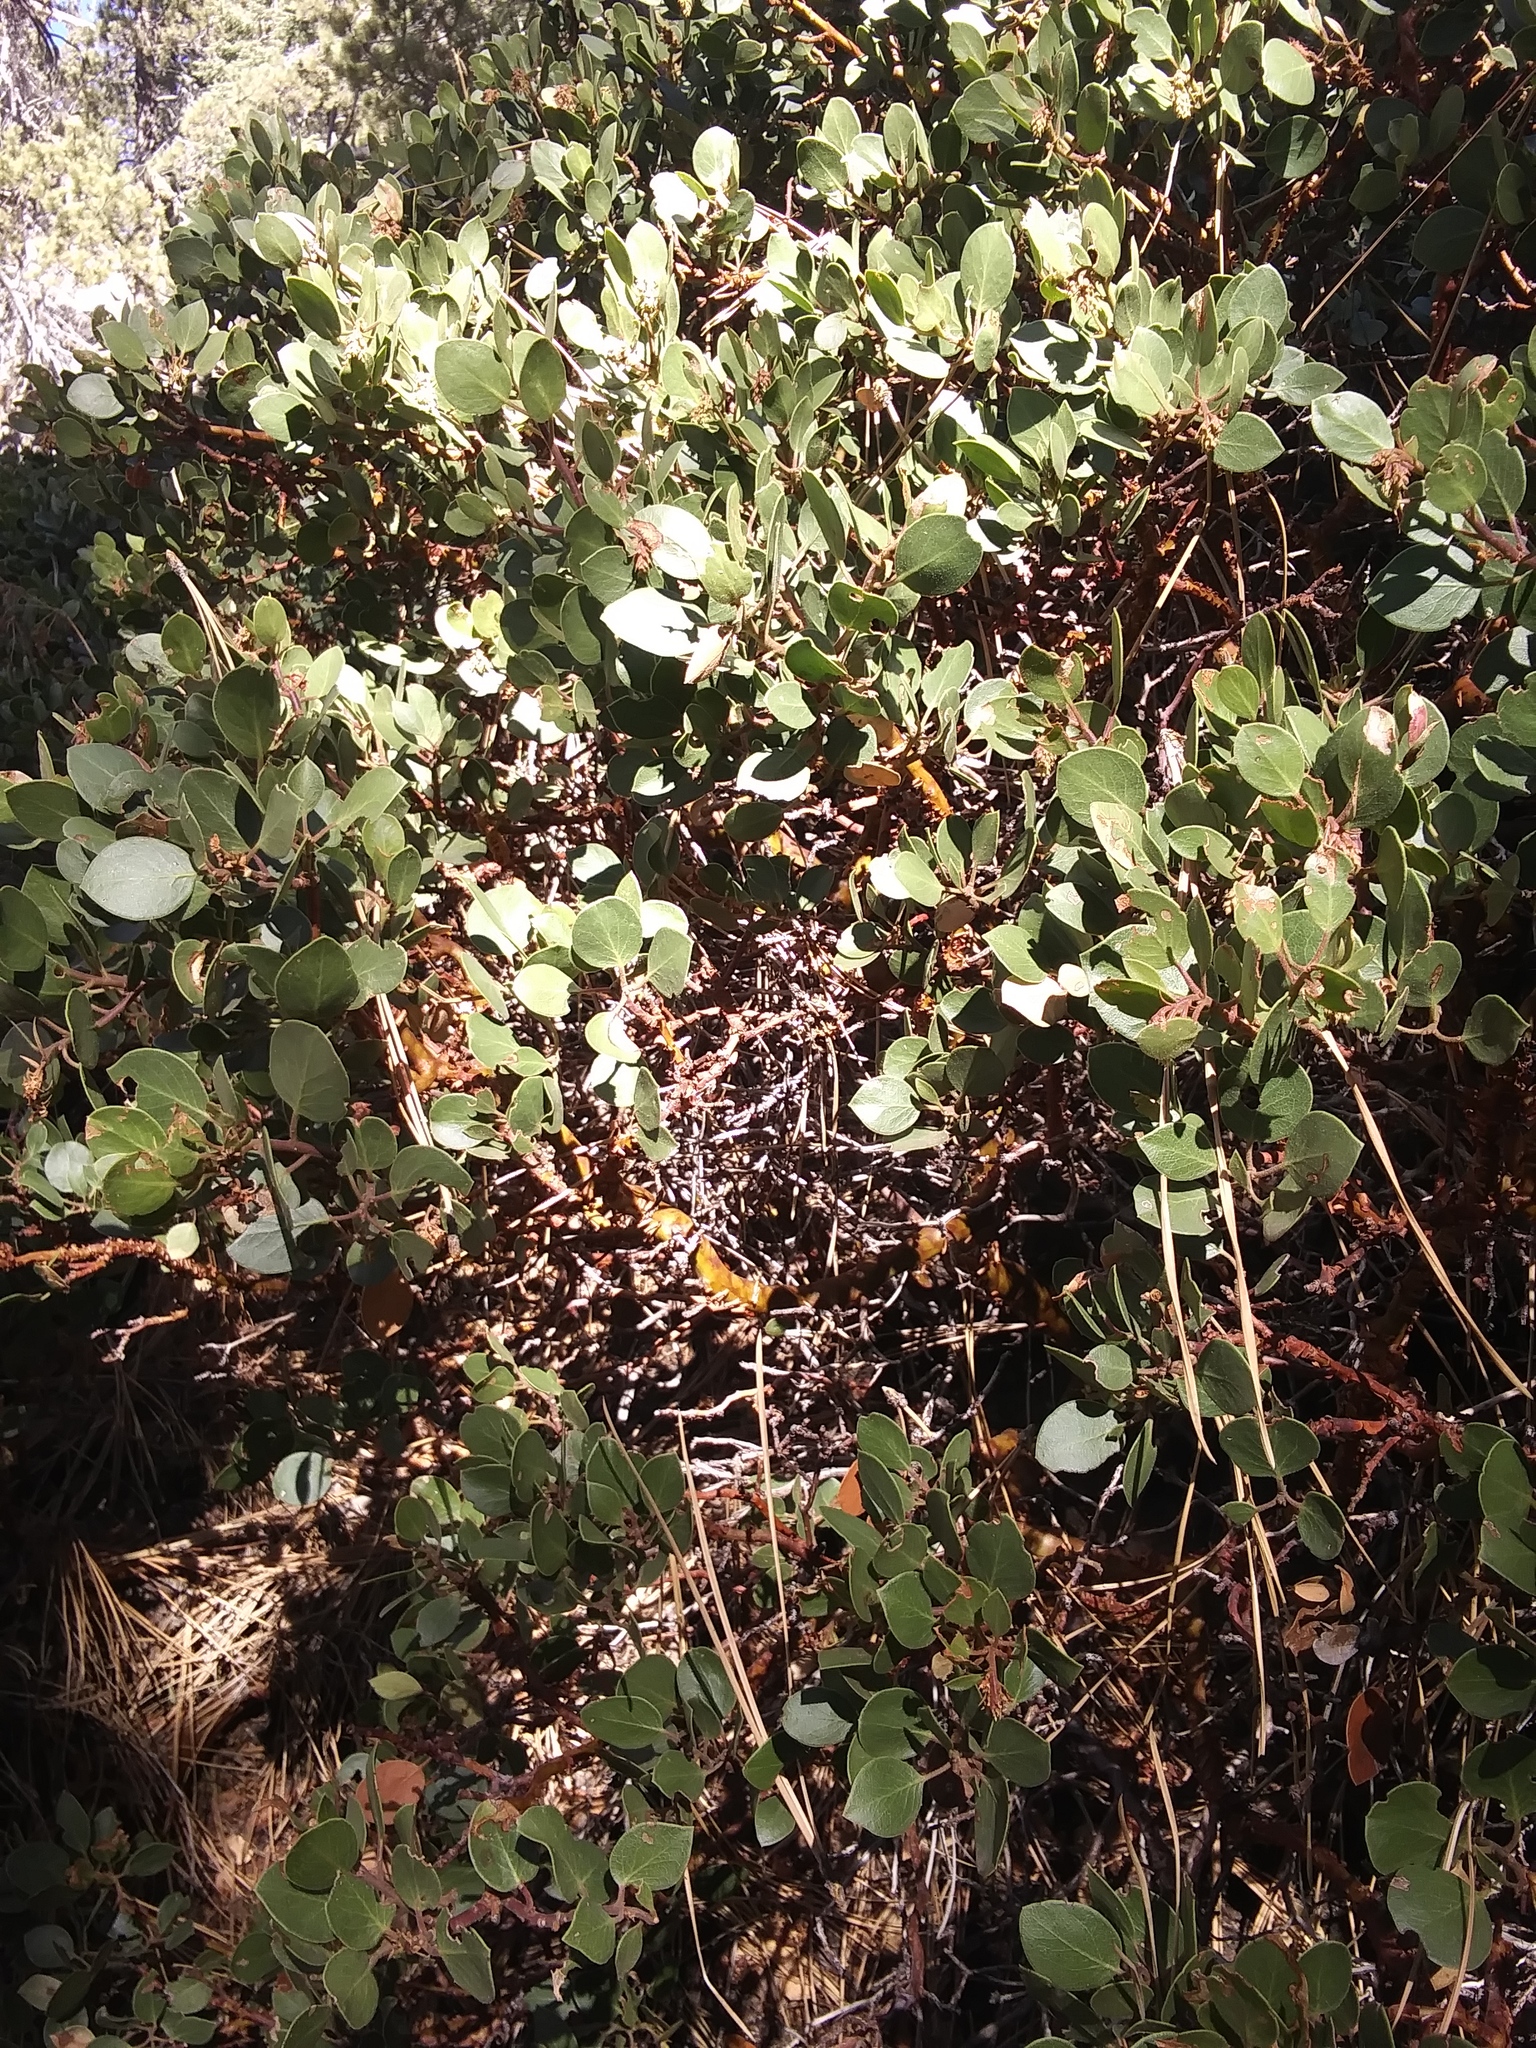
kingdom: Plantae
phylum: Tracheophyta
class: Magnoliopsida
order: Ericales
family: Ericaceae
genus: Arctostaphylos
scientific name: Arctostaphylos patula
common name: Green-leaf manzanita
